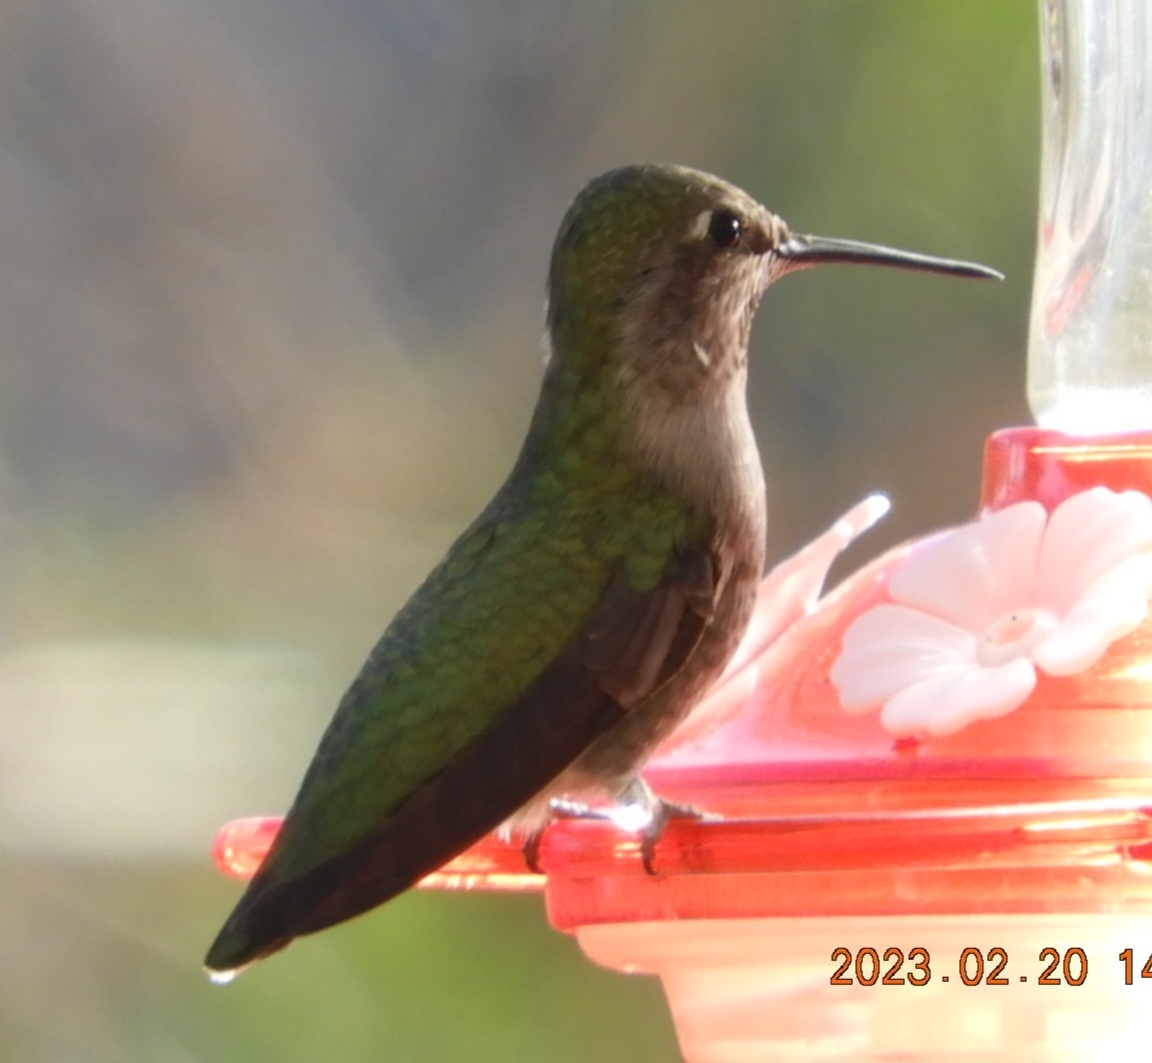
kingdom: Animalia
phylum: Chordata
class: Aves
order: Apodiformes
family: Trochilidae
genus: Calypte
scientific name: Calypte anna
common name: Anna's hummingbird
